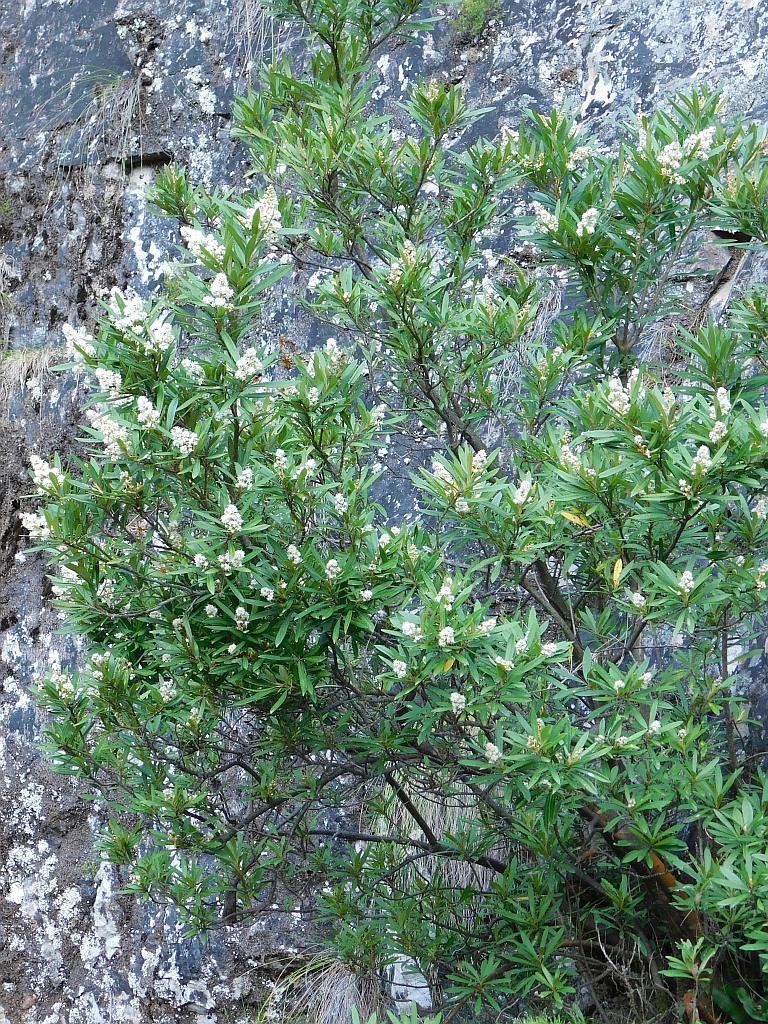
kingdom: Plantae
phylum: Tracheophyta
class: Magnoliopsida
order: Asterales
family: Asteraceae
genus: Brachylaena
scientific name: Brachylaena neriifolia
